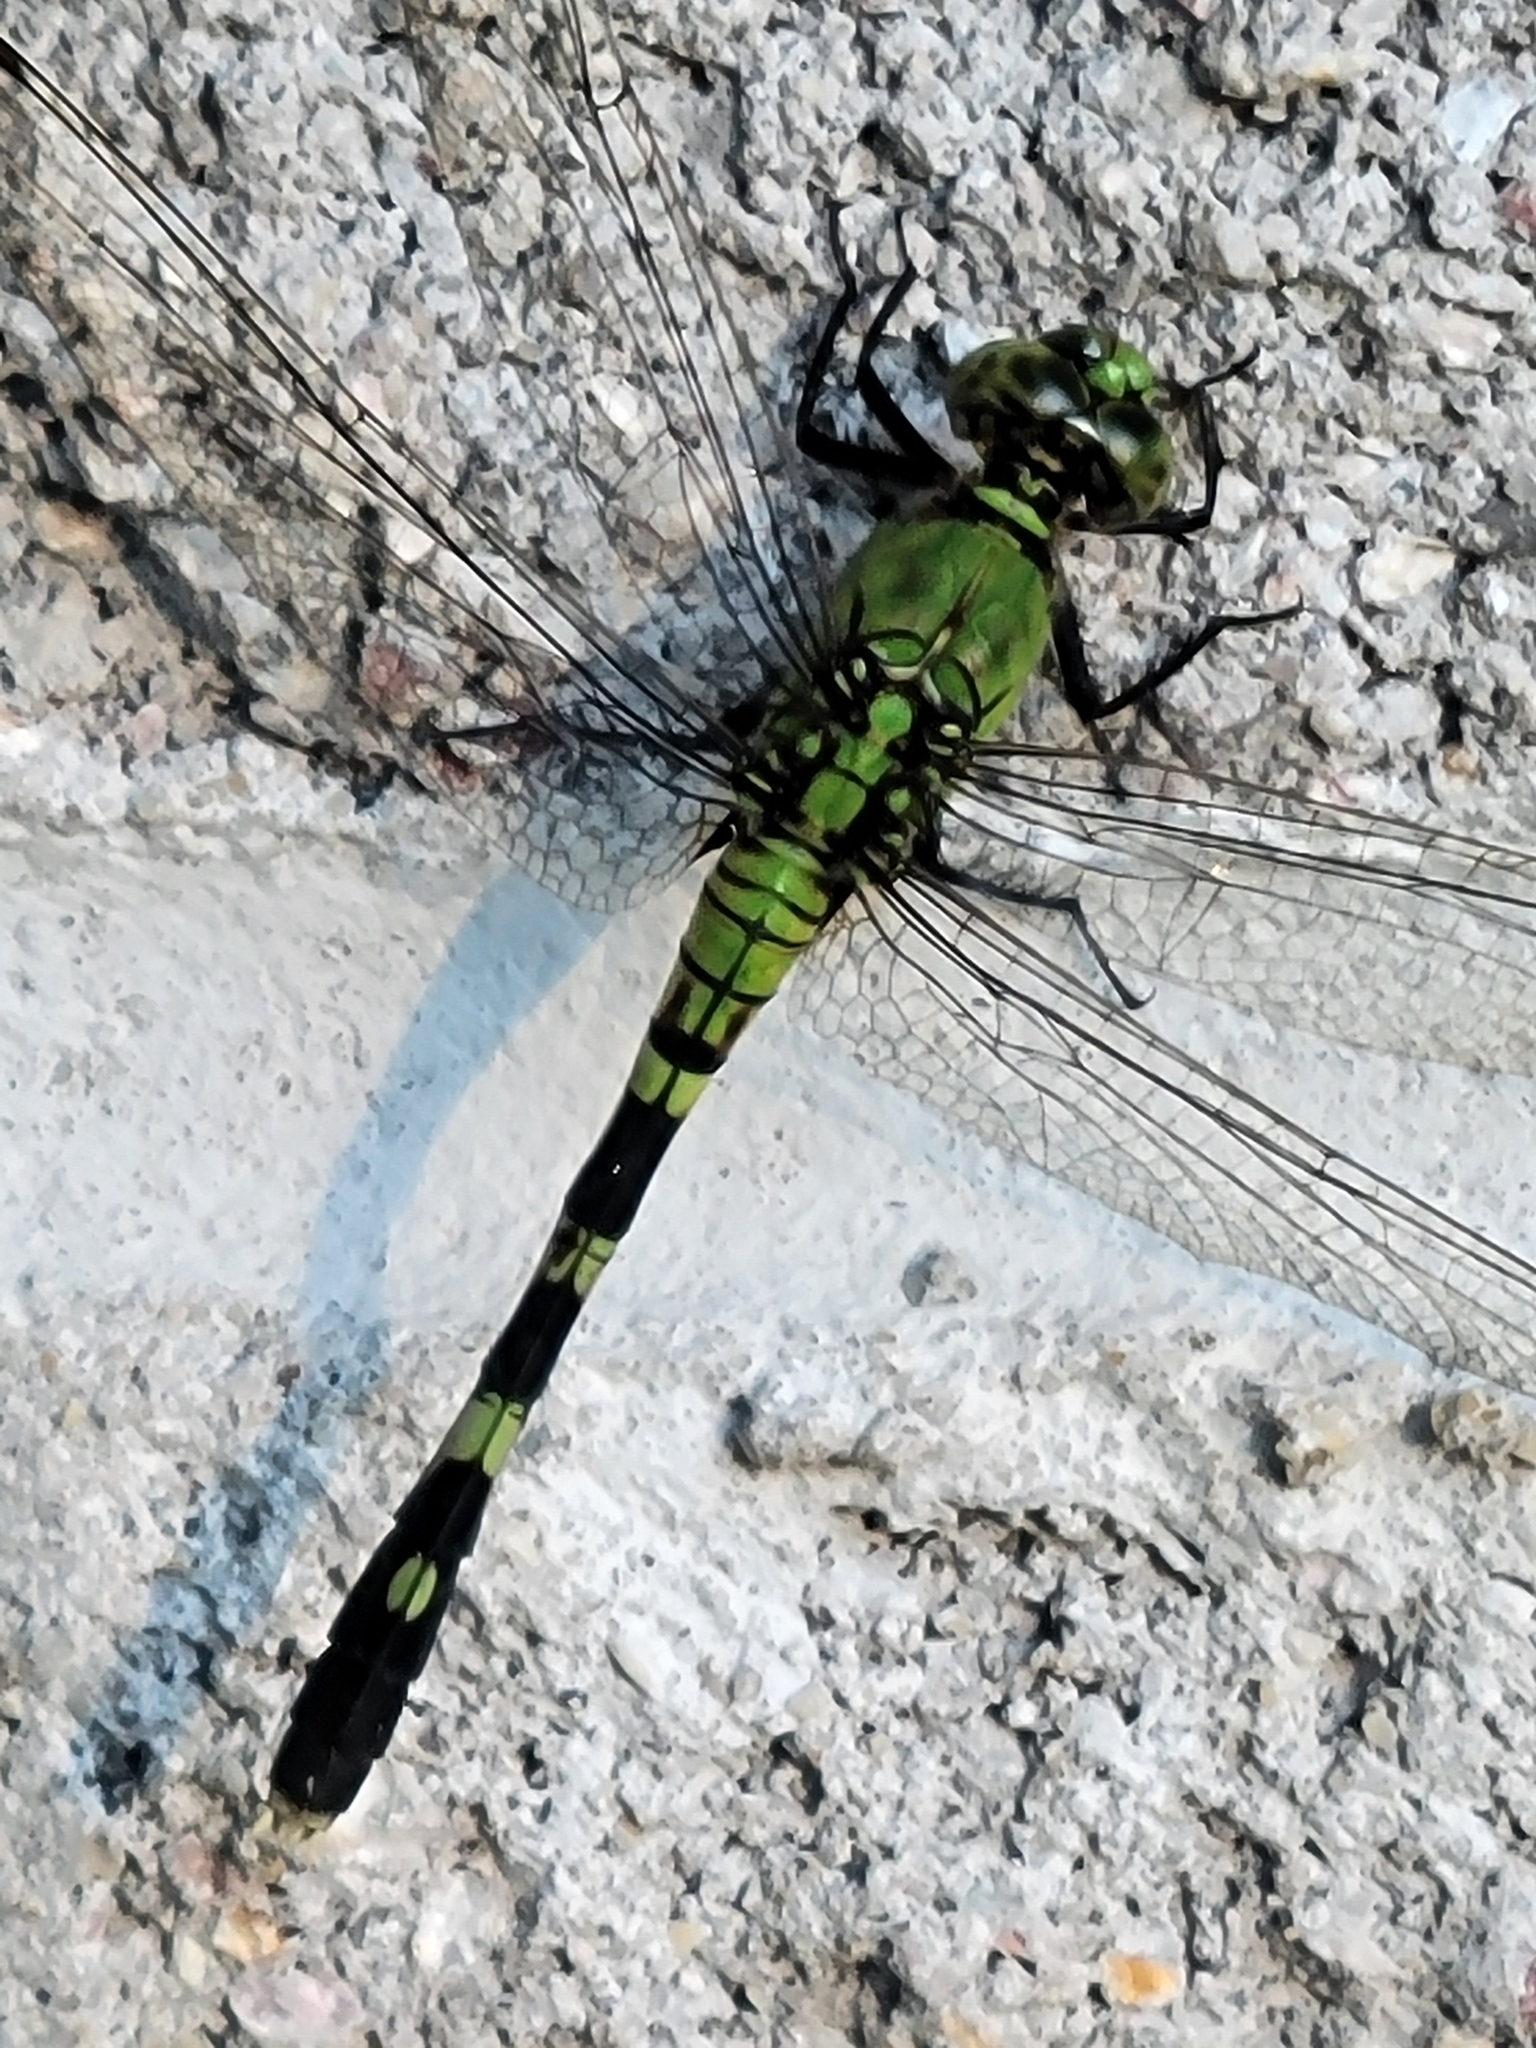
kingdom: Animalia
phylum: Arthropoda
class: Insecta
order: Odonata
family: Libellulidae
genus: Erythemis
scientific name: Erythemis simplicicollis
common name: Eastern pondhawk
